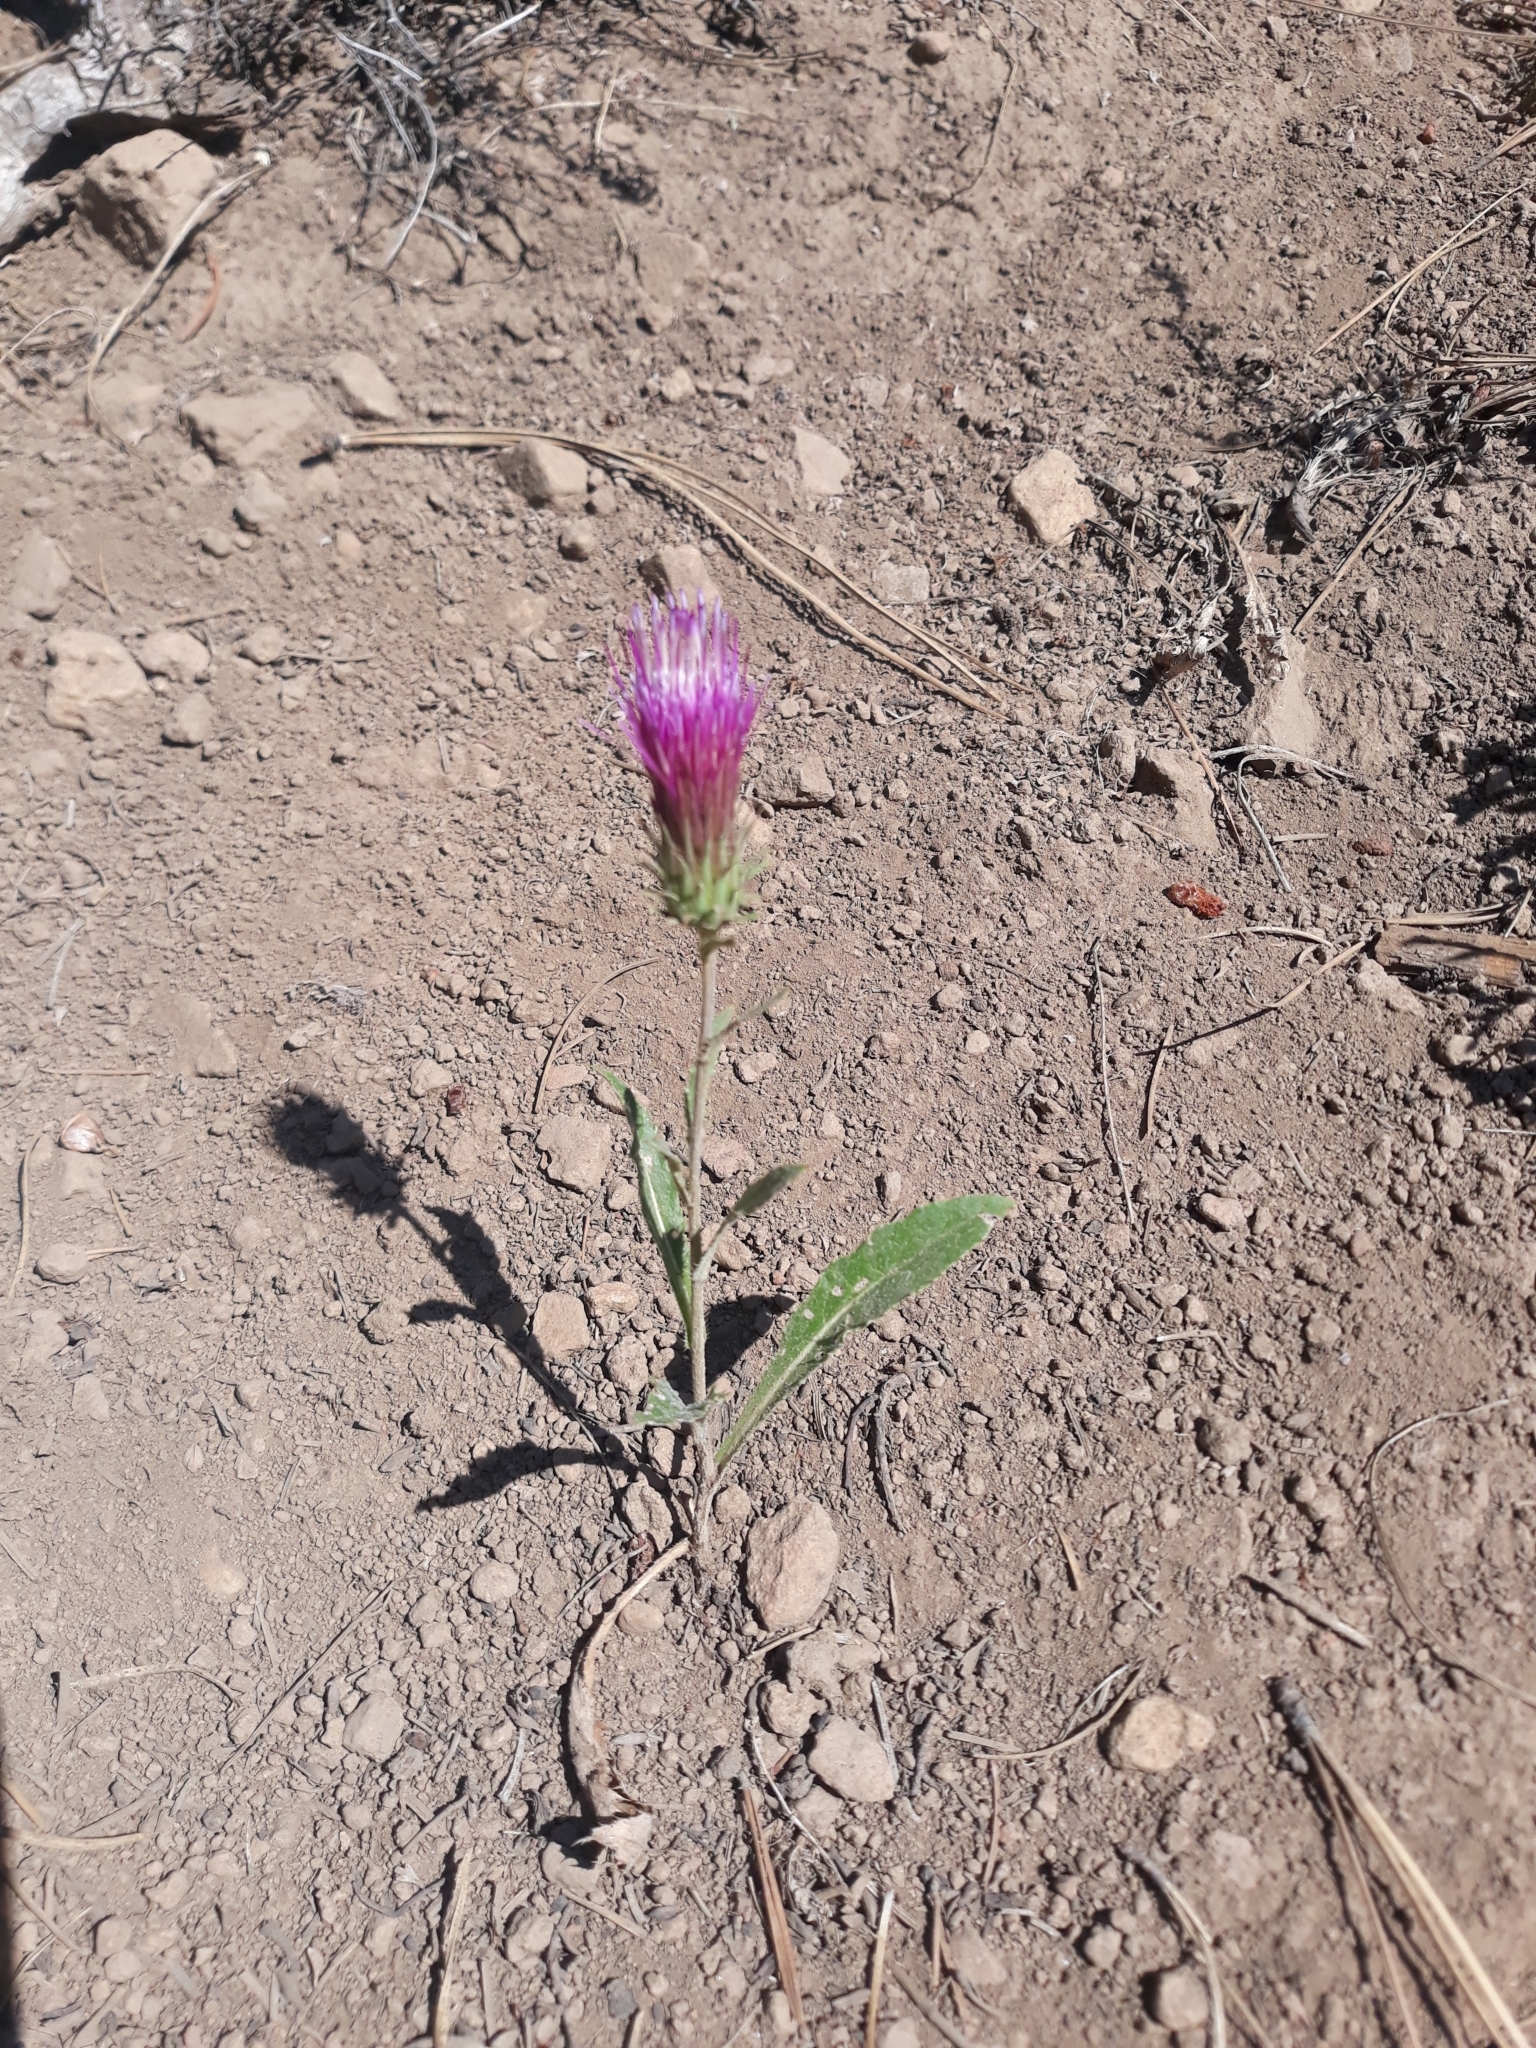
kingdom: Plantae
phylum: Tracheophyta
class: Magnoliopsida
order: Asterales
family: Asteraceae
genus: Cirsium
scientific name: Cirsium andersonii
